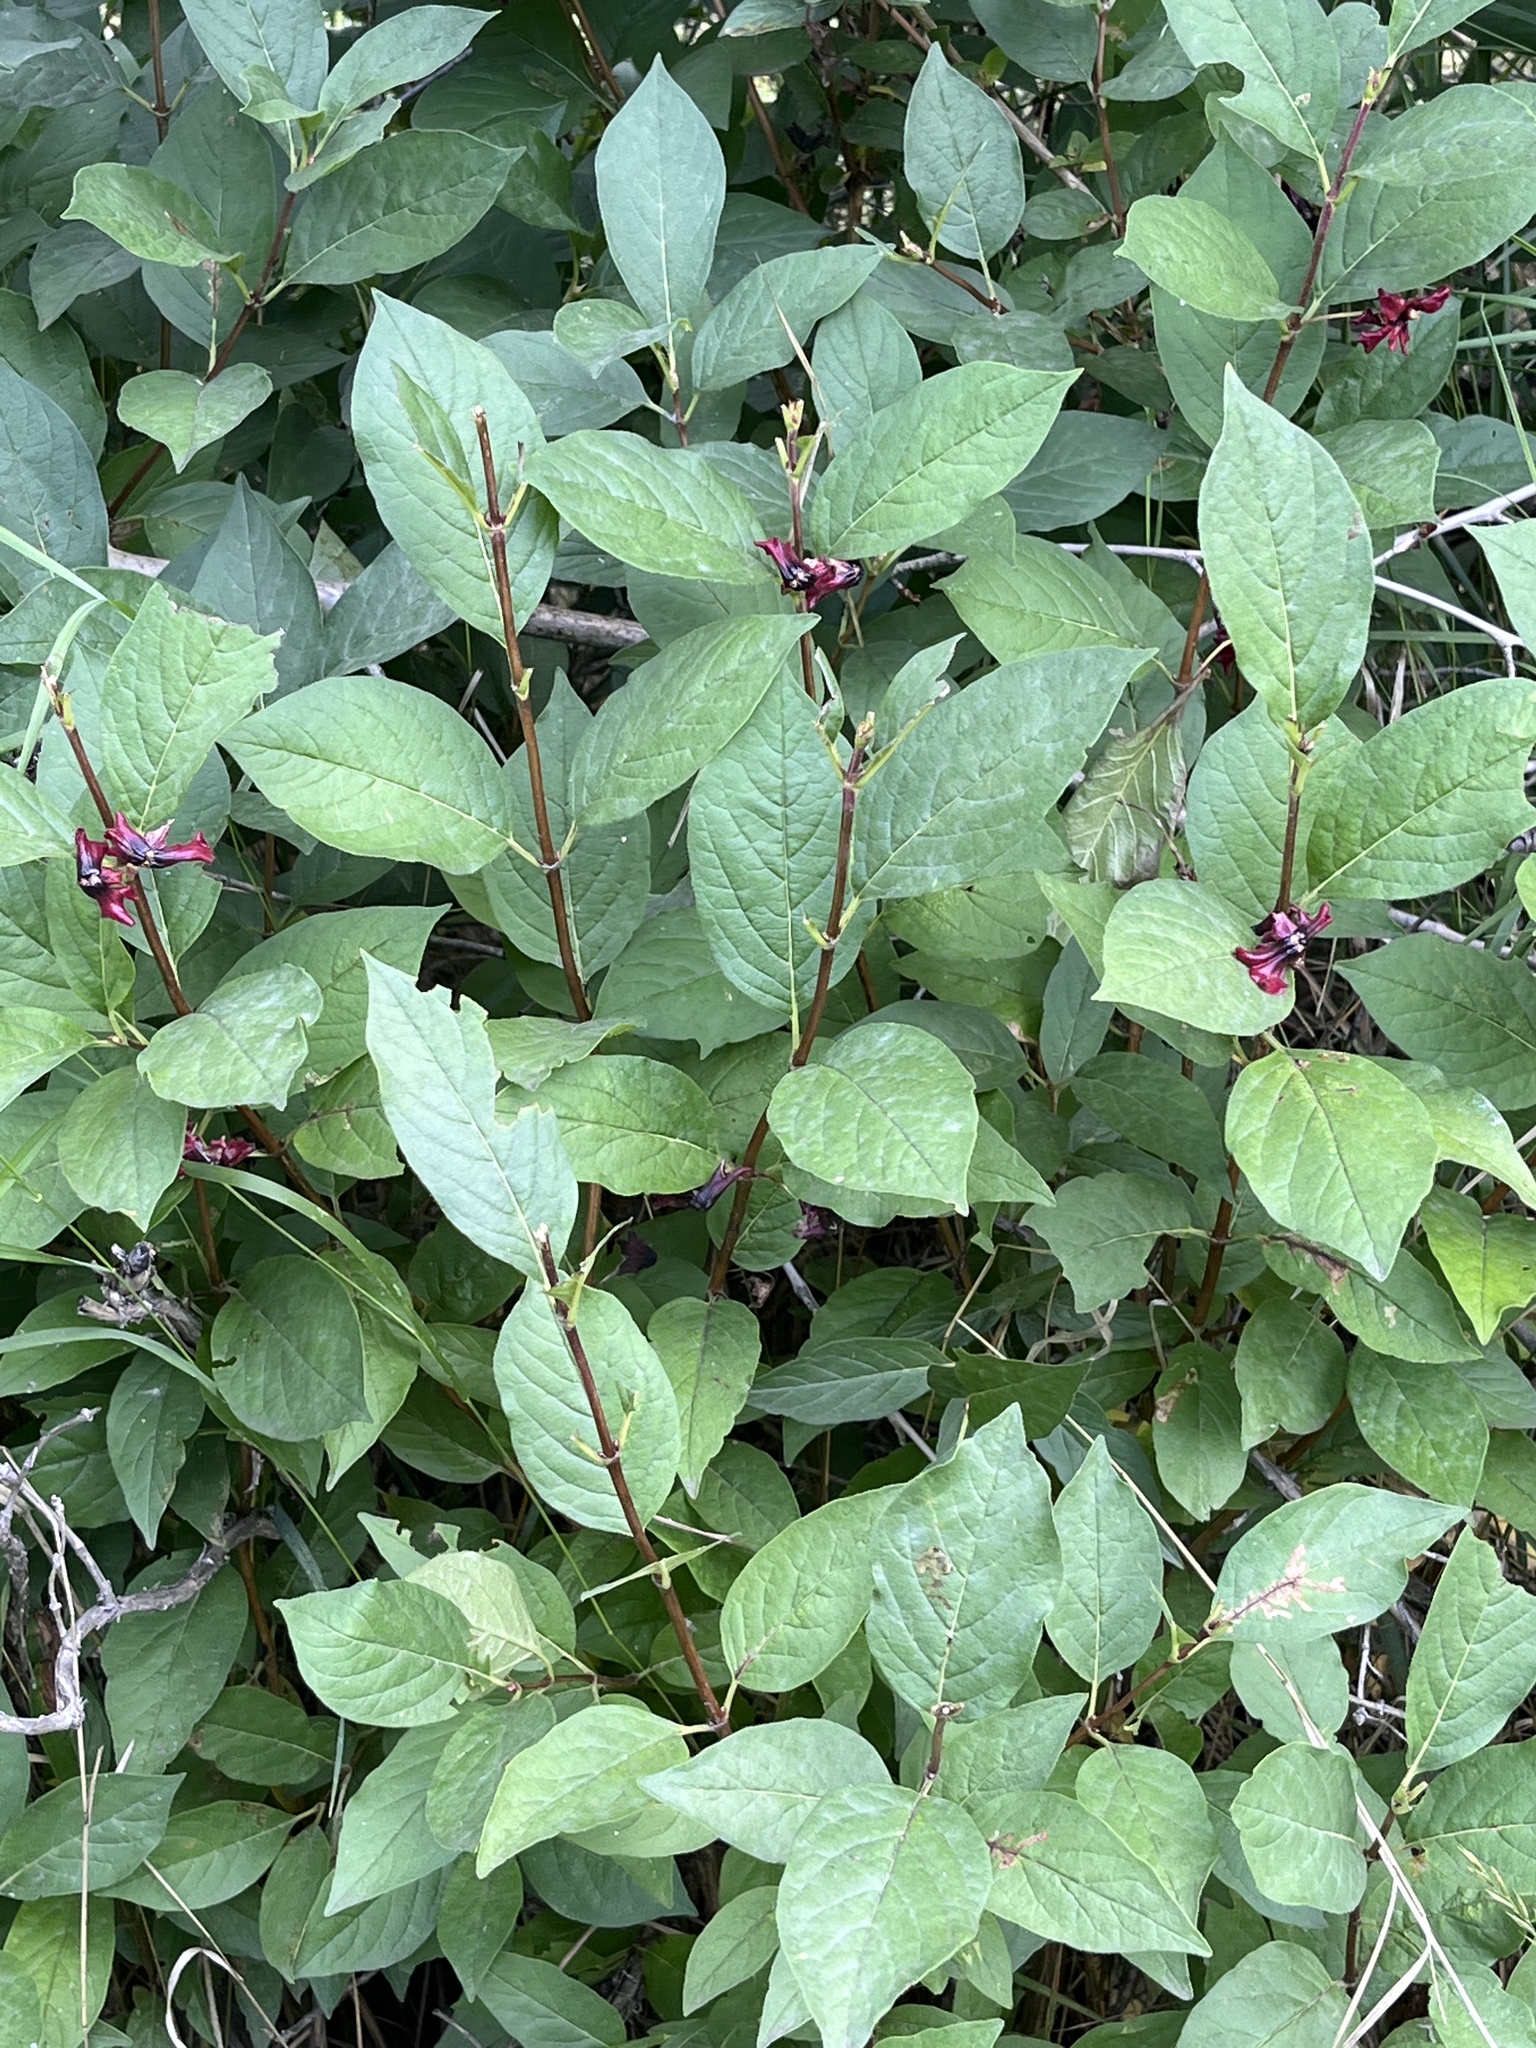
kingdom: Plantae
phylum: Tracheophyta
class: Magnoliopsida
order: Dipsacales
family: Caprifoliaceae
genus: Lonicera
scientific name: Lonicera involucrata
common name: Californian honeysuckle
